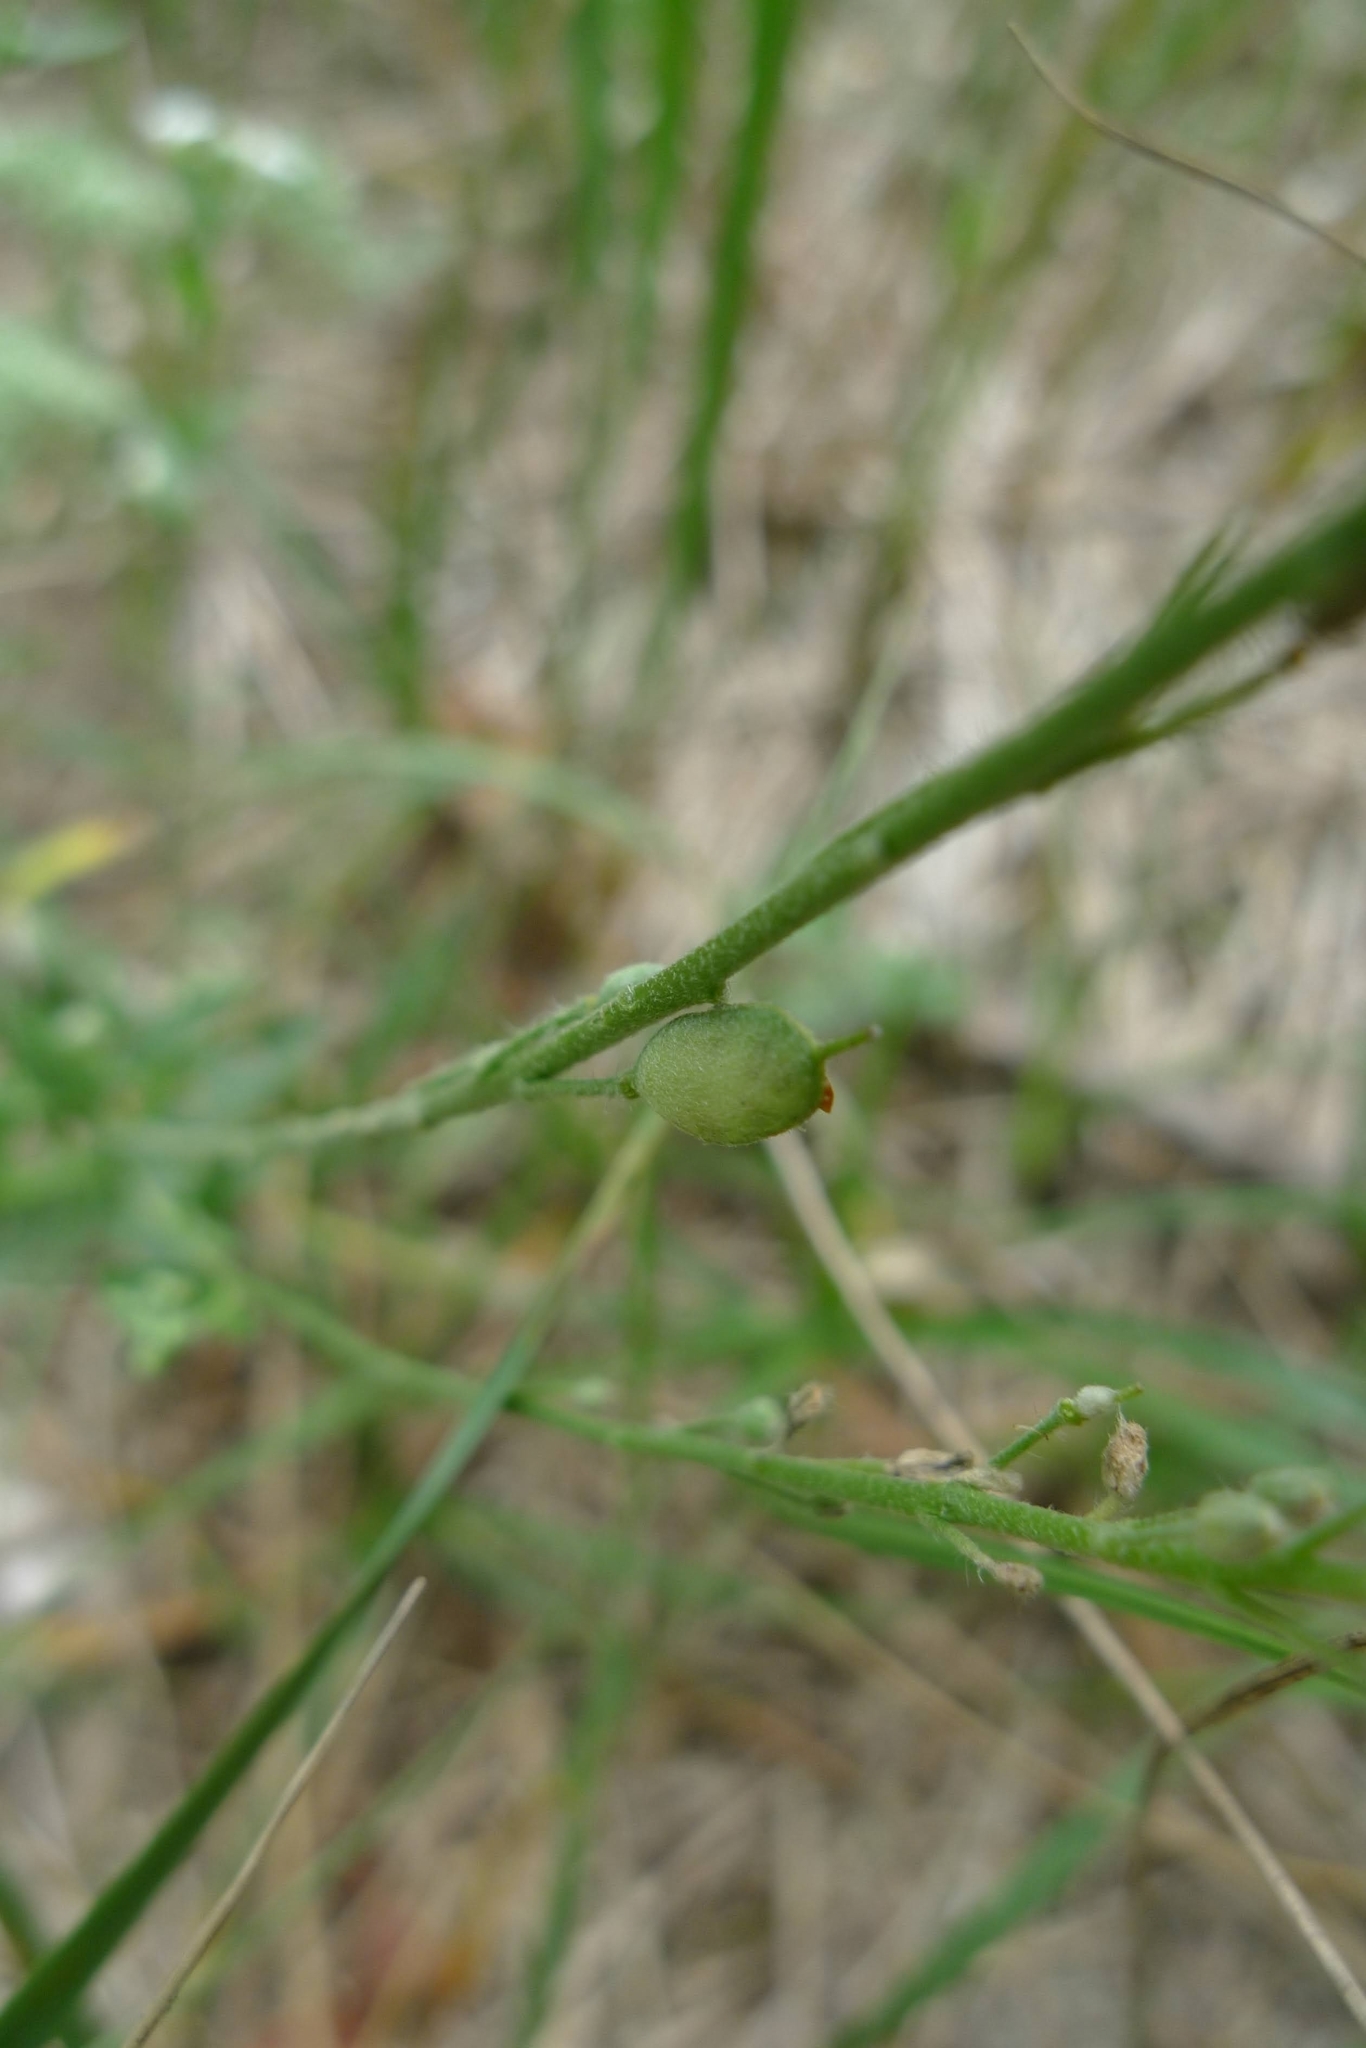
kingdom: Plantae
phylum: Tracheophyta
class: Magnoliopsida
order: Brassicales
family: Brassicaceae
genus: Berteroa
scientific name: Berteroa incana
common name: Hoary alison
